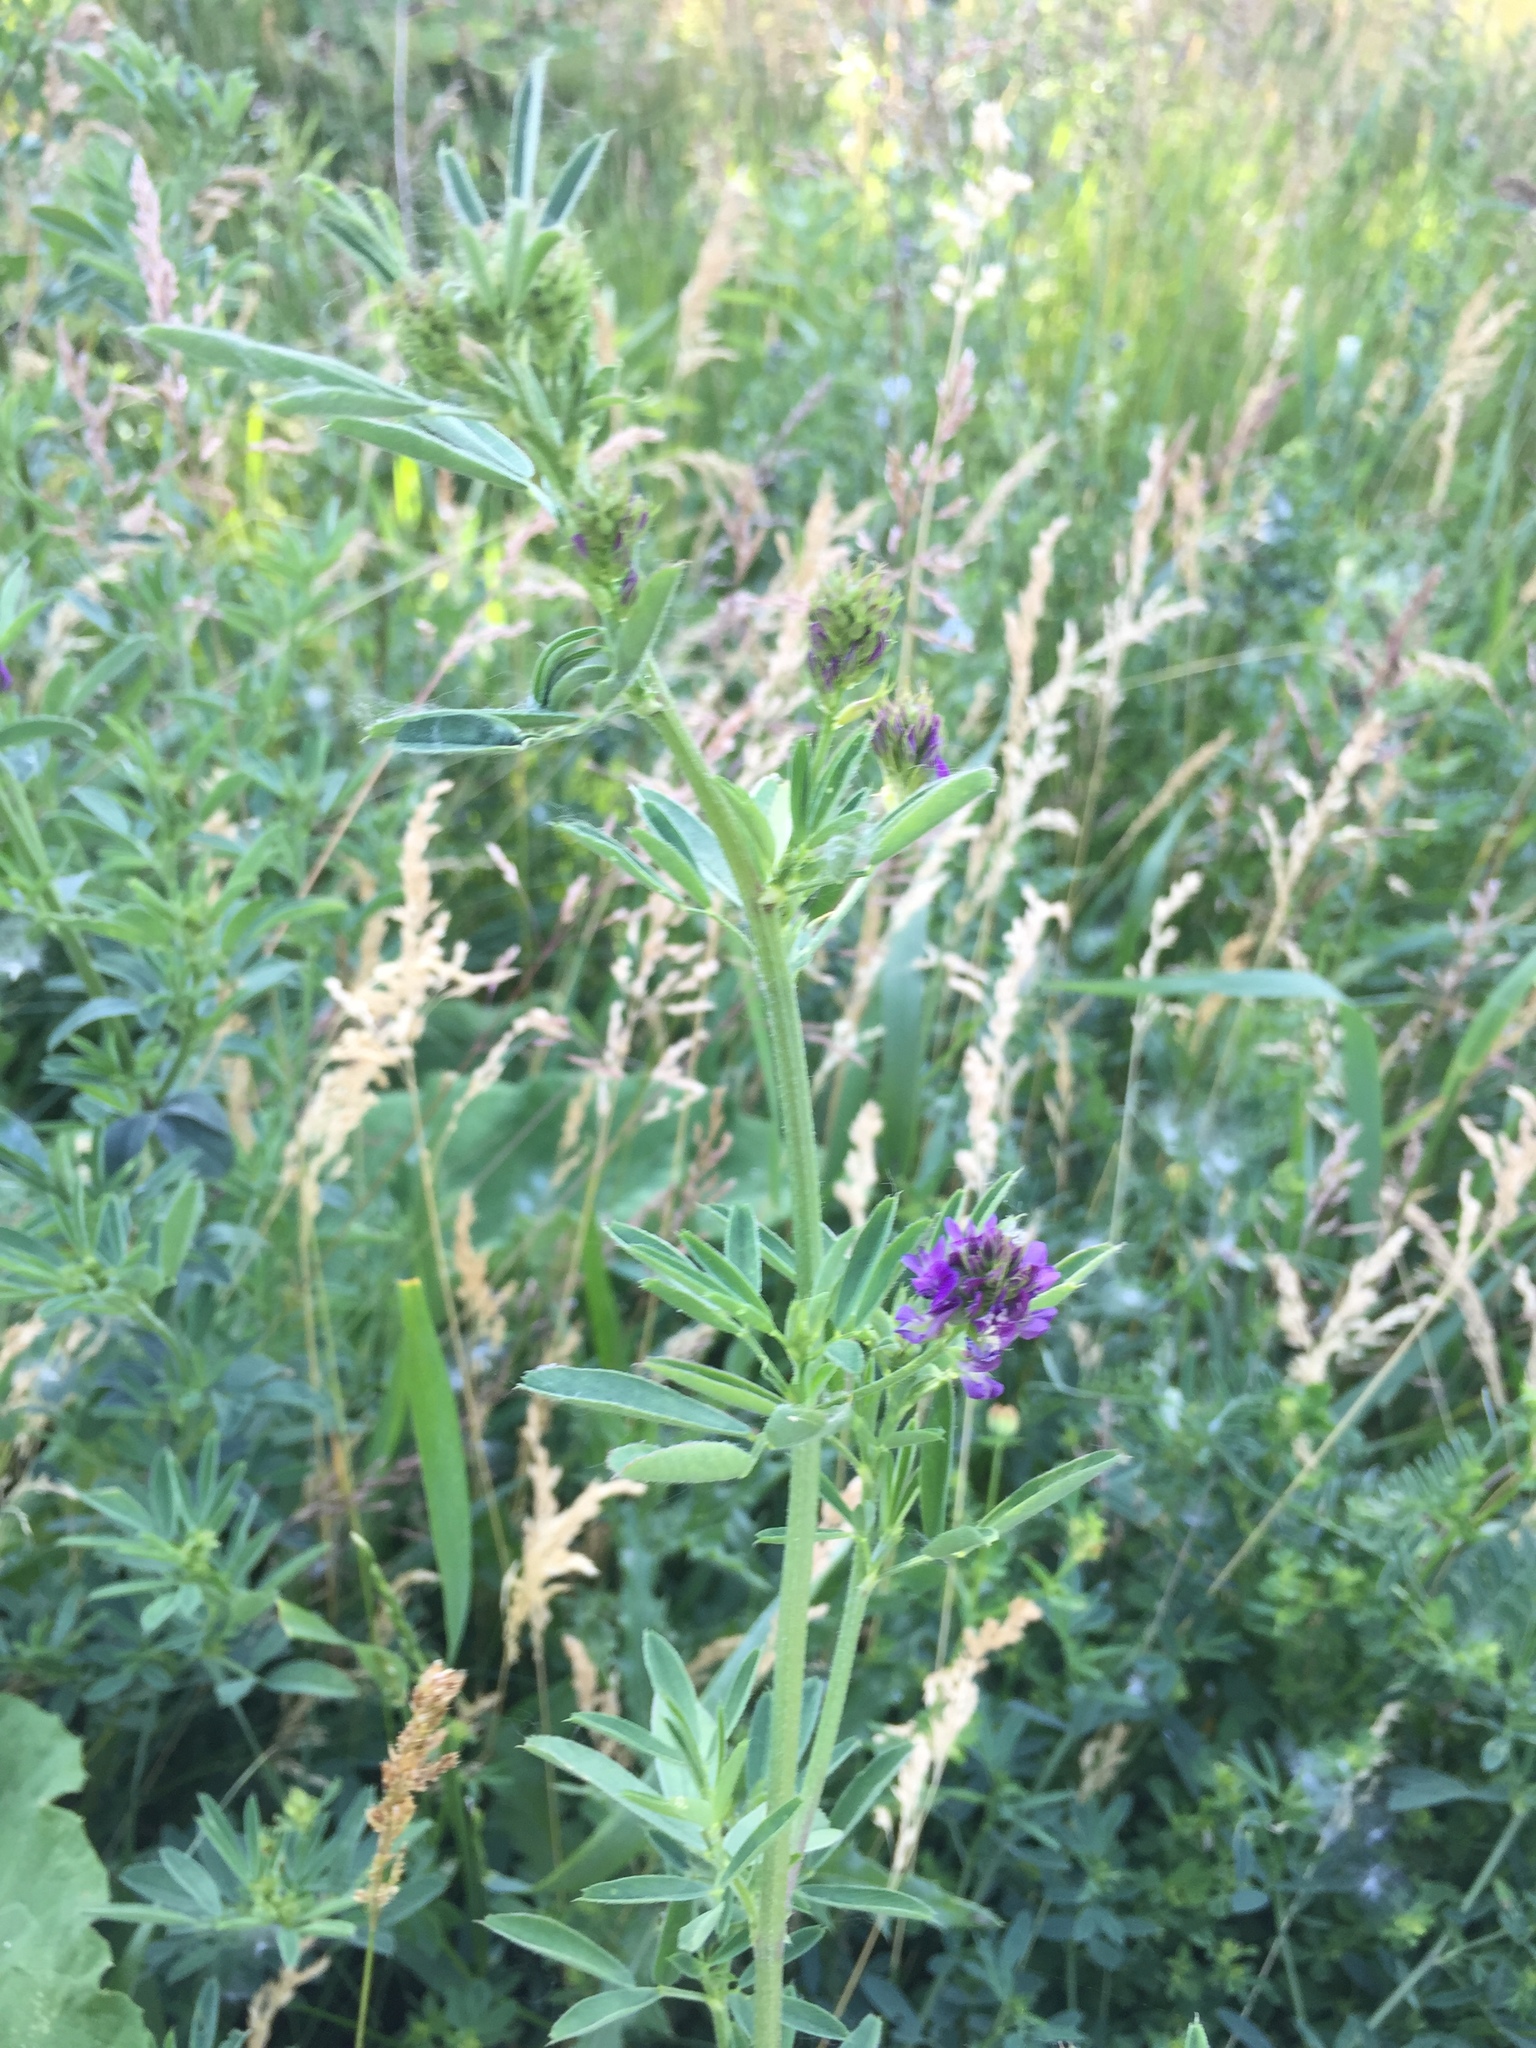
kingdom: Plantae
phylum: Tracheophyta
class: Magnoliopsida
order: Fabales
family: Fabaceae
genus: Medicago
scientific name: Medicago sativa
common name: Alfalfa
